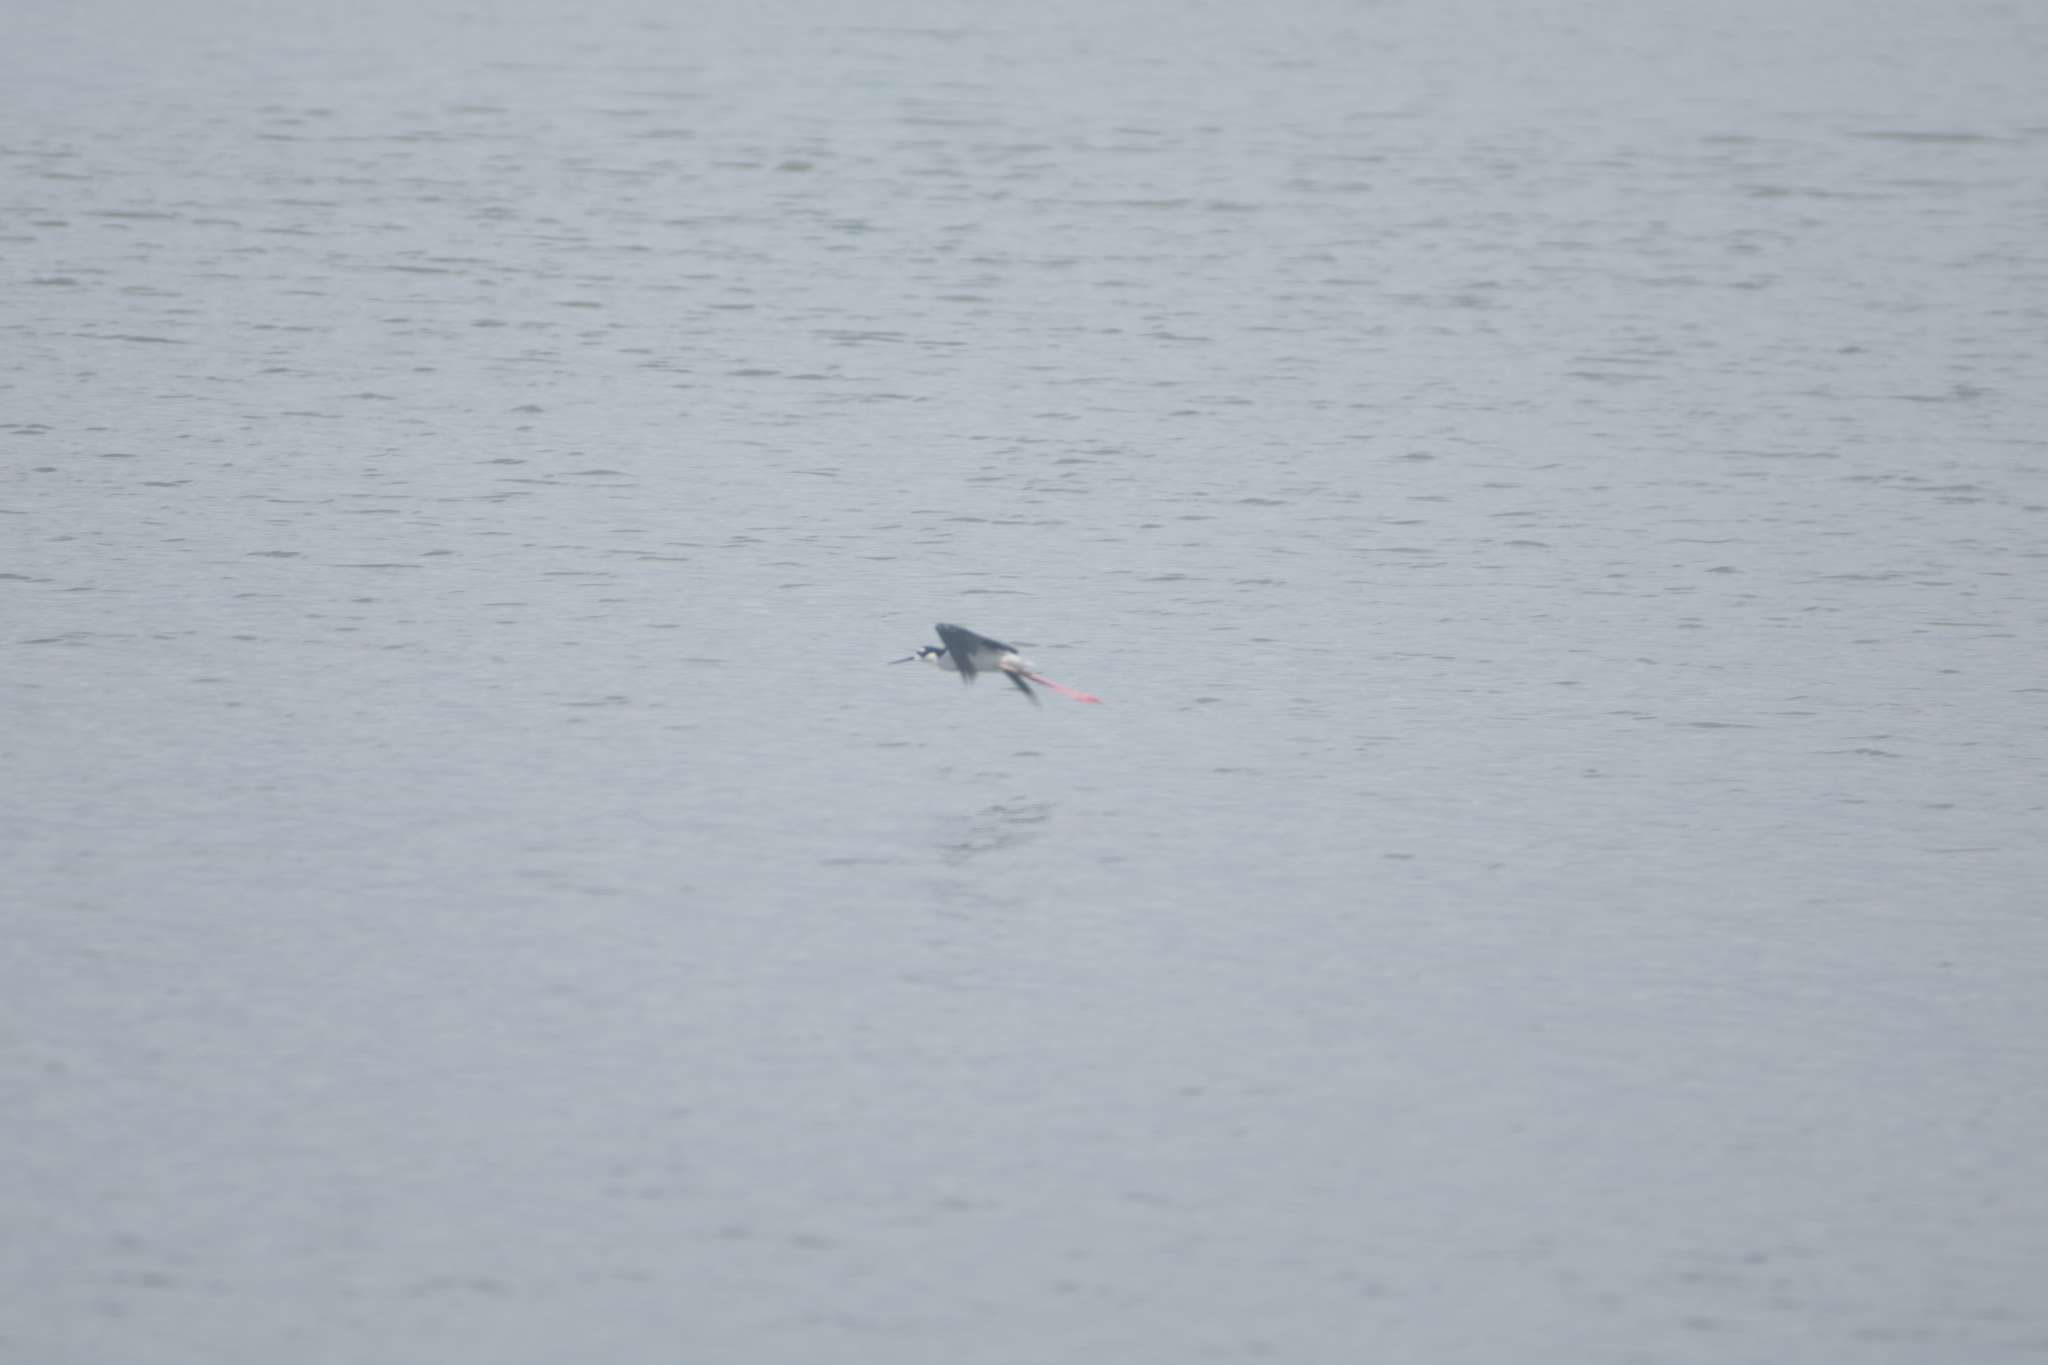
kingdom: Animalia
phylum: Chordata
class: Aves
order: Charadriiformes
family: Recurvirostridae
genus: Himantopus
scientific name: Himantopus mexicanus
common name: Black-necked stilt
